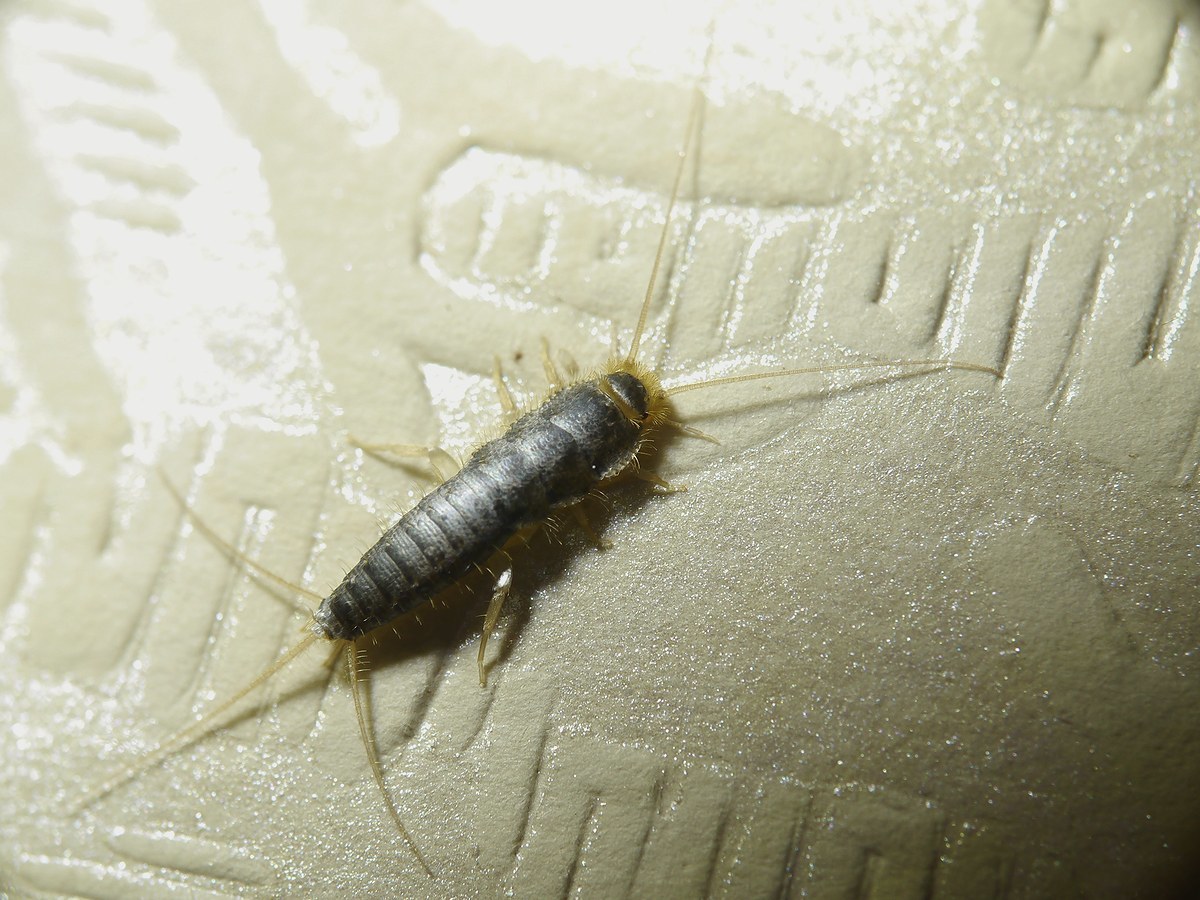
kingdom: Animalia
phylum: Arthropoda
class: Insecta
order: Zygentoma
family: Lepismatidae
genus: Ctenolepisma
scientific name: Ctenolepisma longicaudatum
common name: Silverfish
